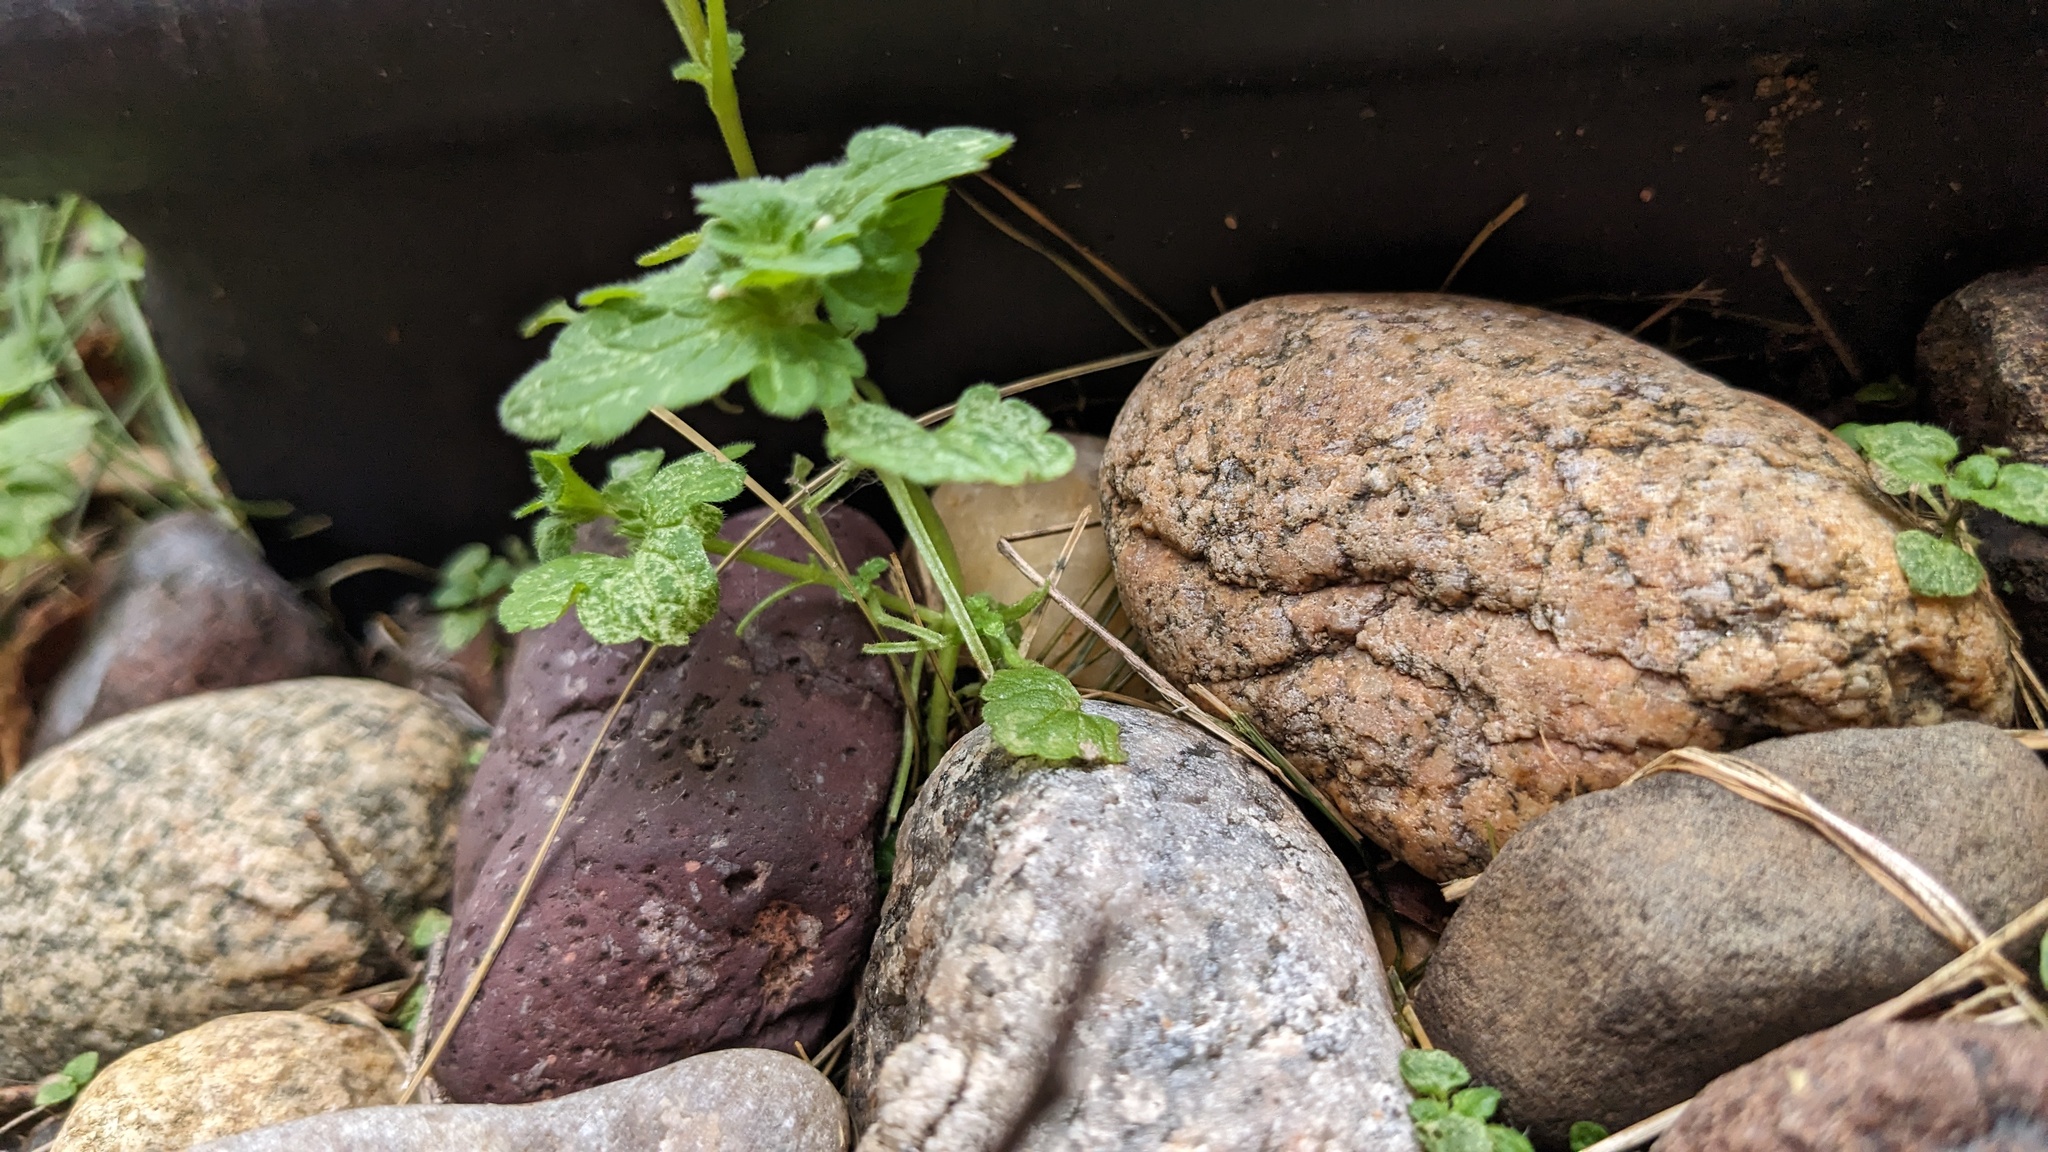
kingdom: Plantae
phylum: Tracheophyta
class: Magnoliopsida
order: Lamiales
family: Lamiaceae
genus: Lamium
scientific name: Lamium amplexicaule
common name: Henbit dead-nettle
